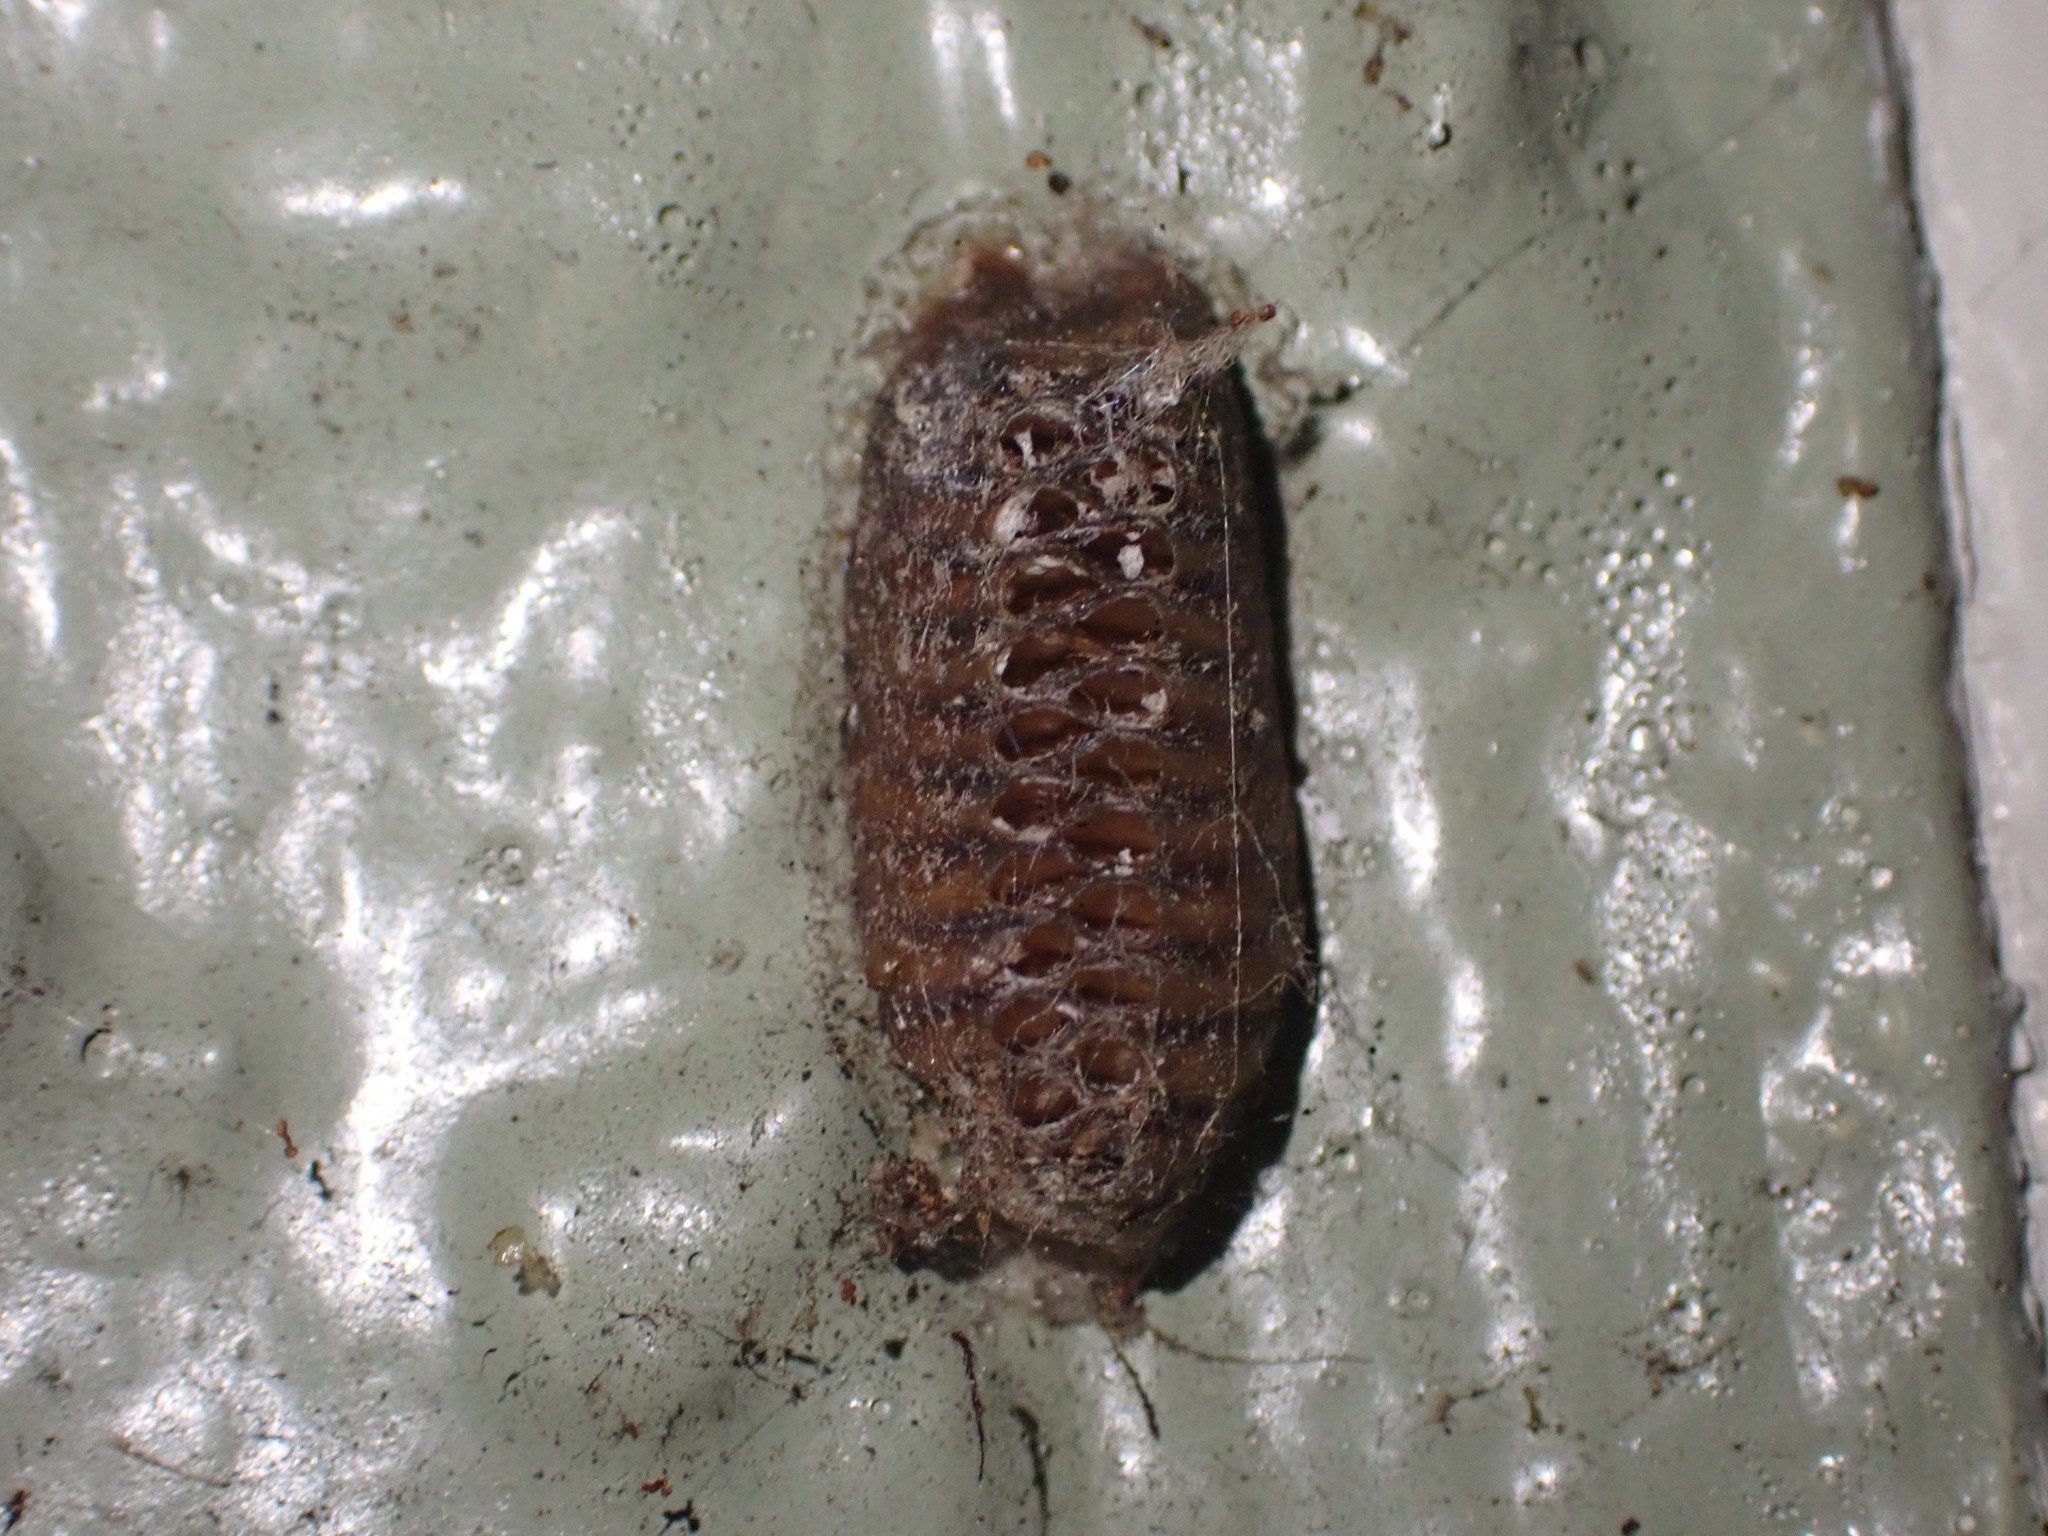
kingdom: Animalia
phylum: Arthropoda
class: Insecta
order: Mantodea
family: Mantidae
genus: Orthodera
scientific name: Orthodera novaezealandiae
